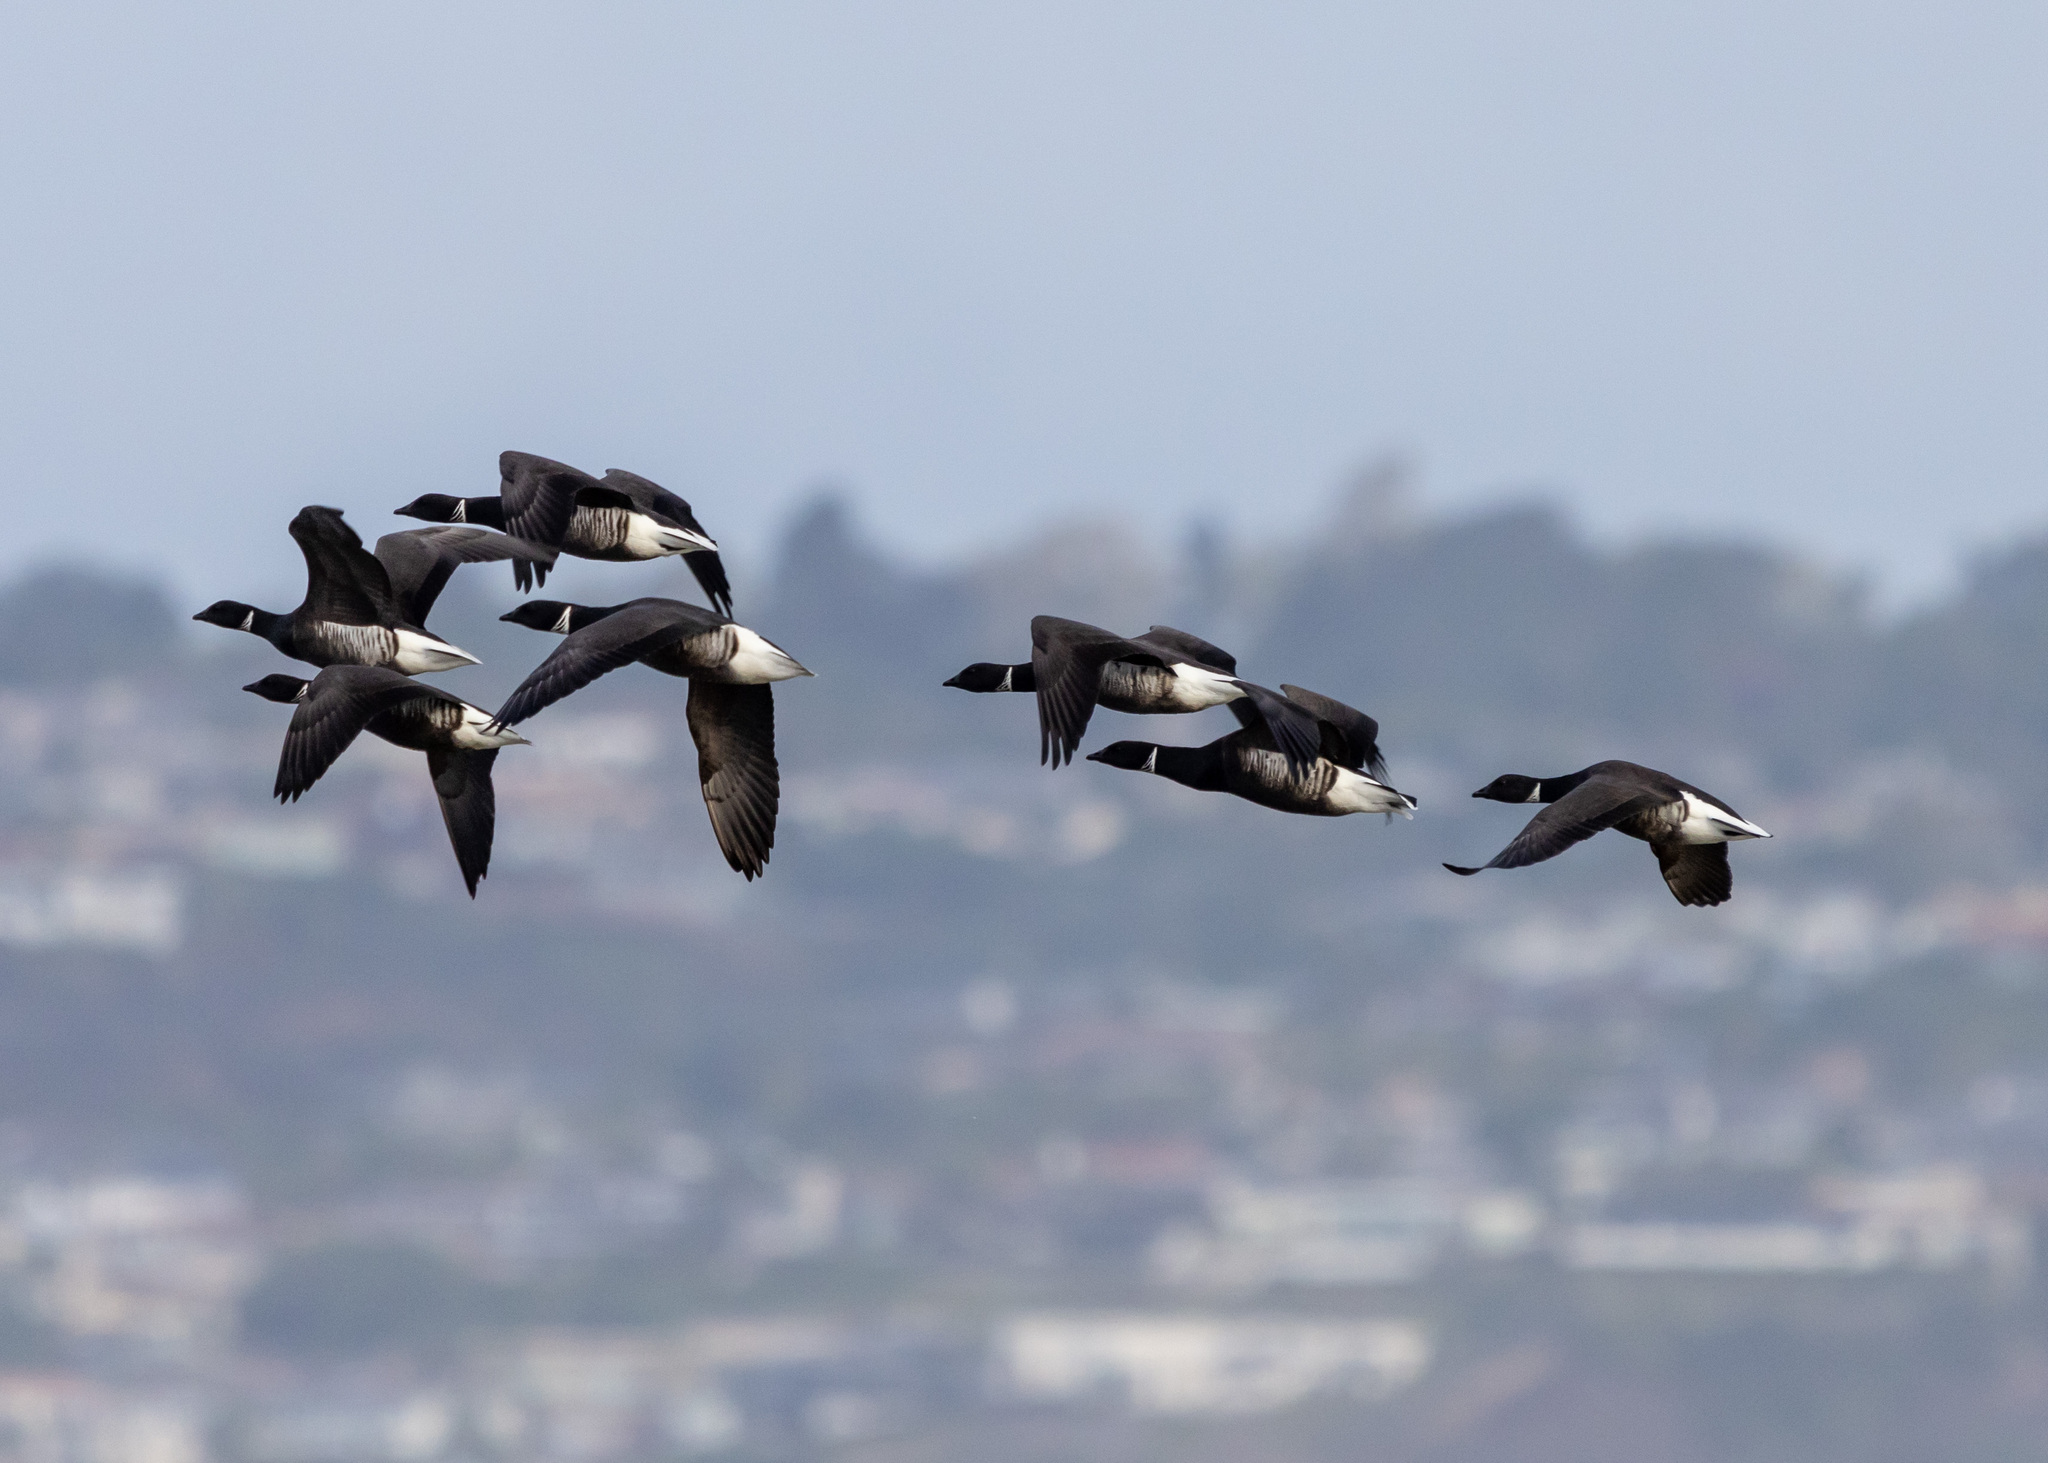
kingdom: Animalia
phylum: Chordata
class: Aves
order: Anseriformes
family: Anatidae
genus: Branta
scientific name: Branta bernicla
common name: Brant goose
